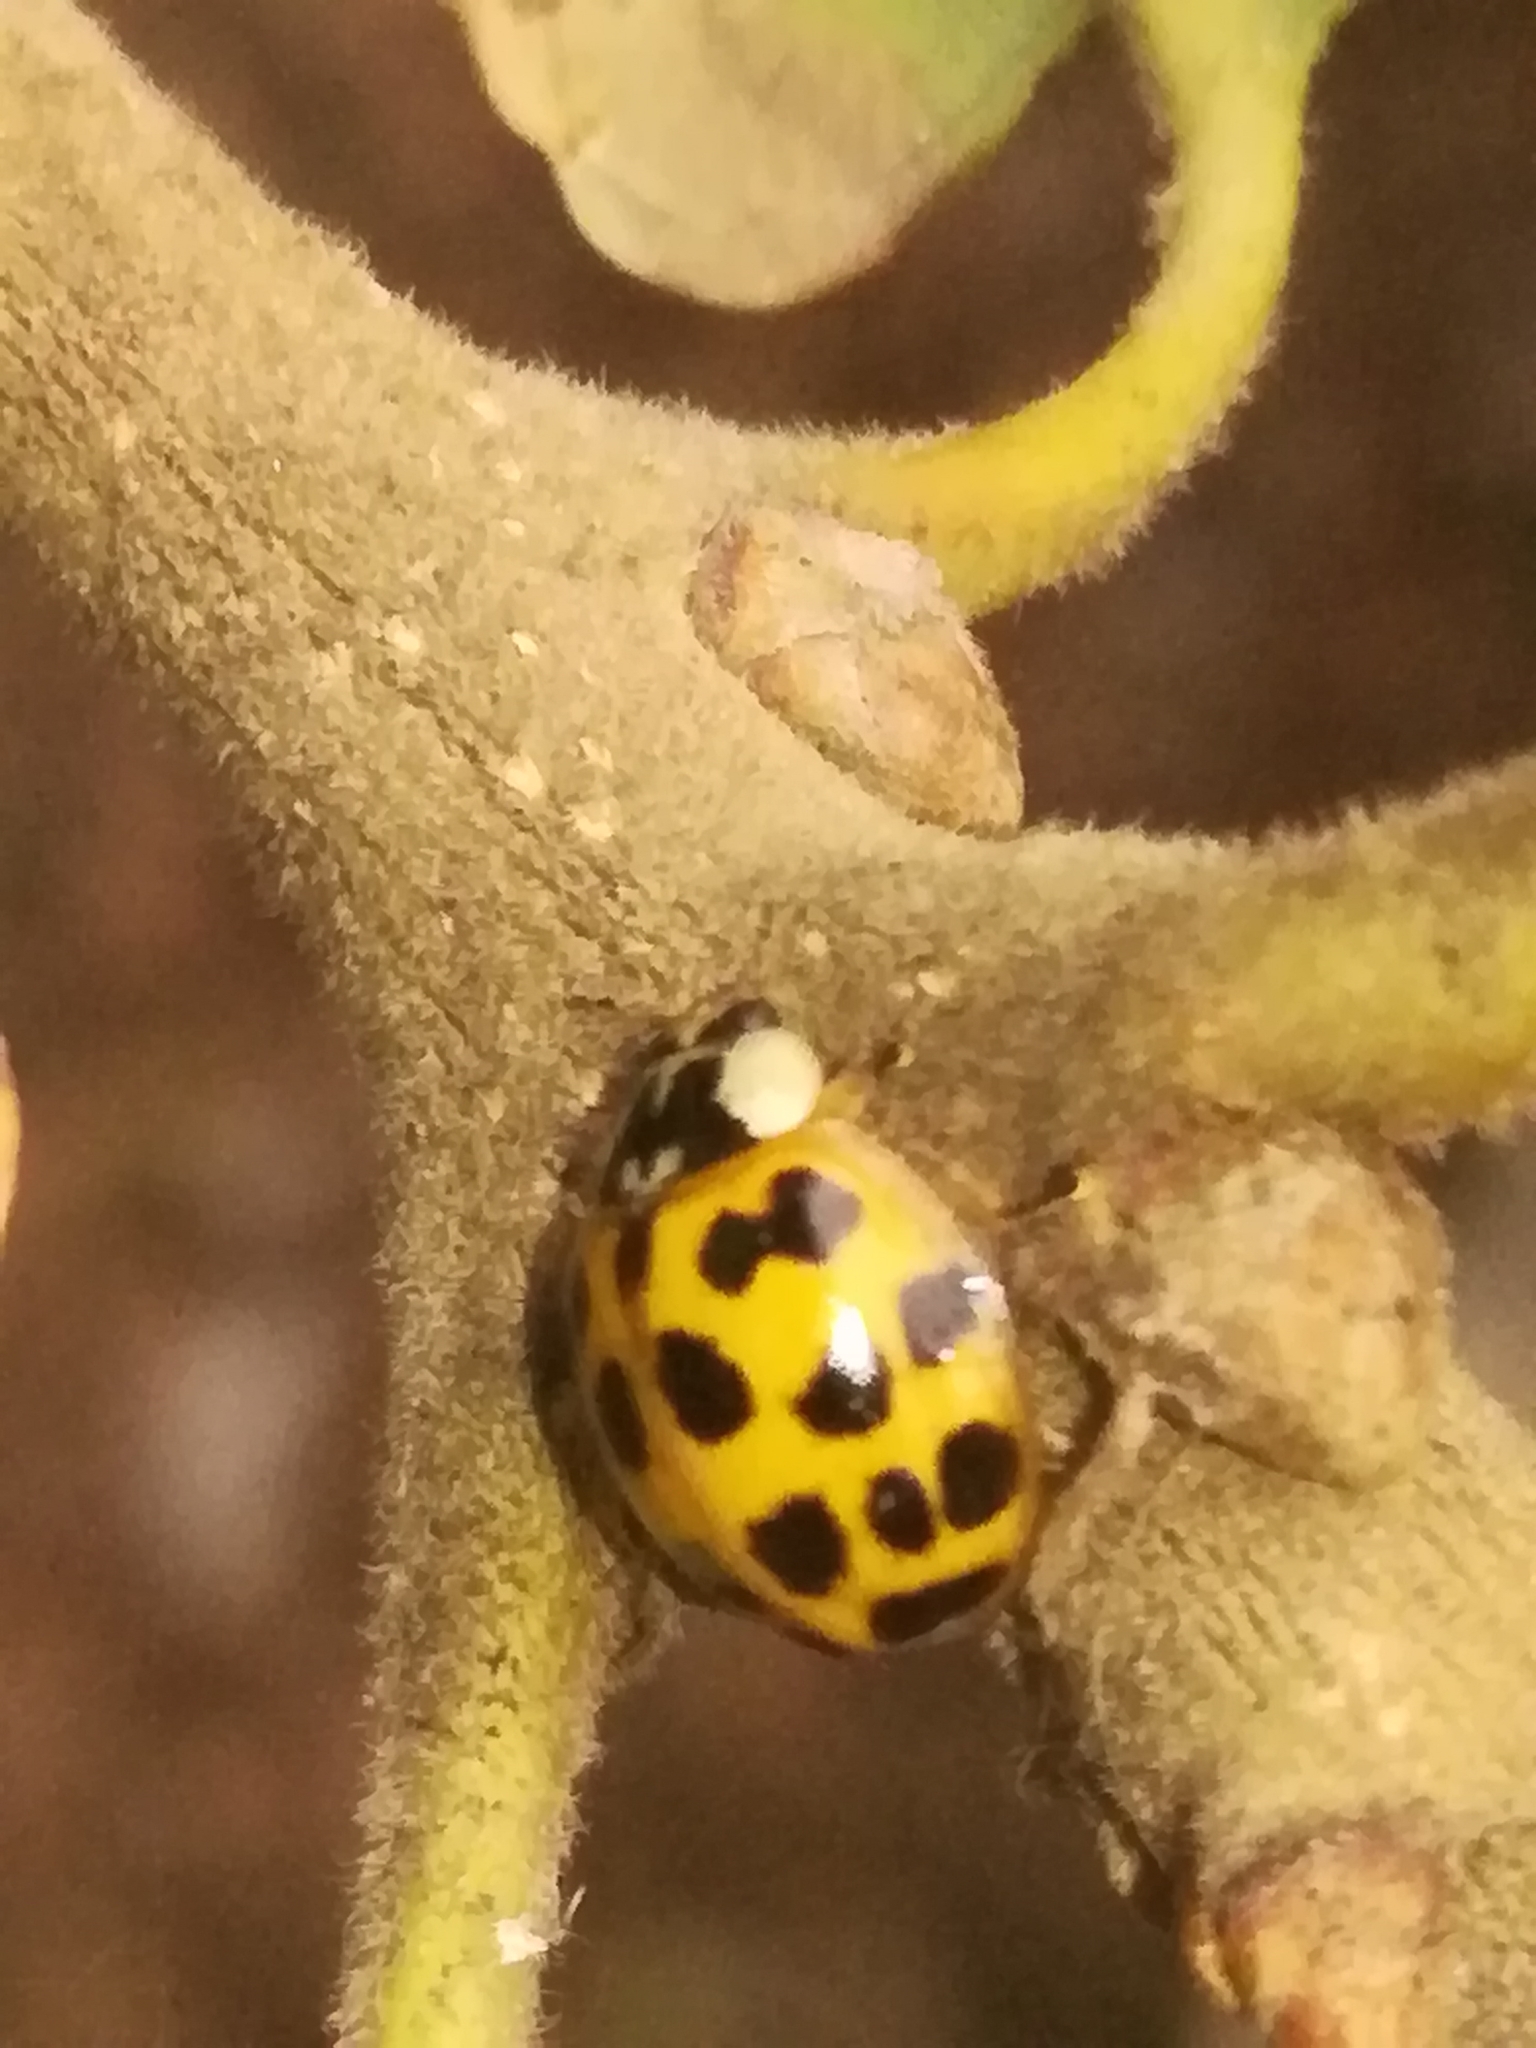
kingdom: Animalia
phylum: Arthropoda
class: Insecta
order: Coleoptera
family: Coccinellidae
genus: Harmonia
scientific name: Harmonia axyridis
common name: Harlequin ladybird
